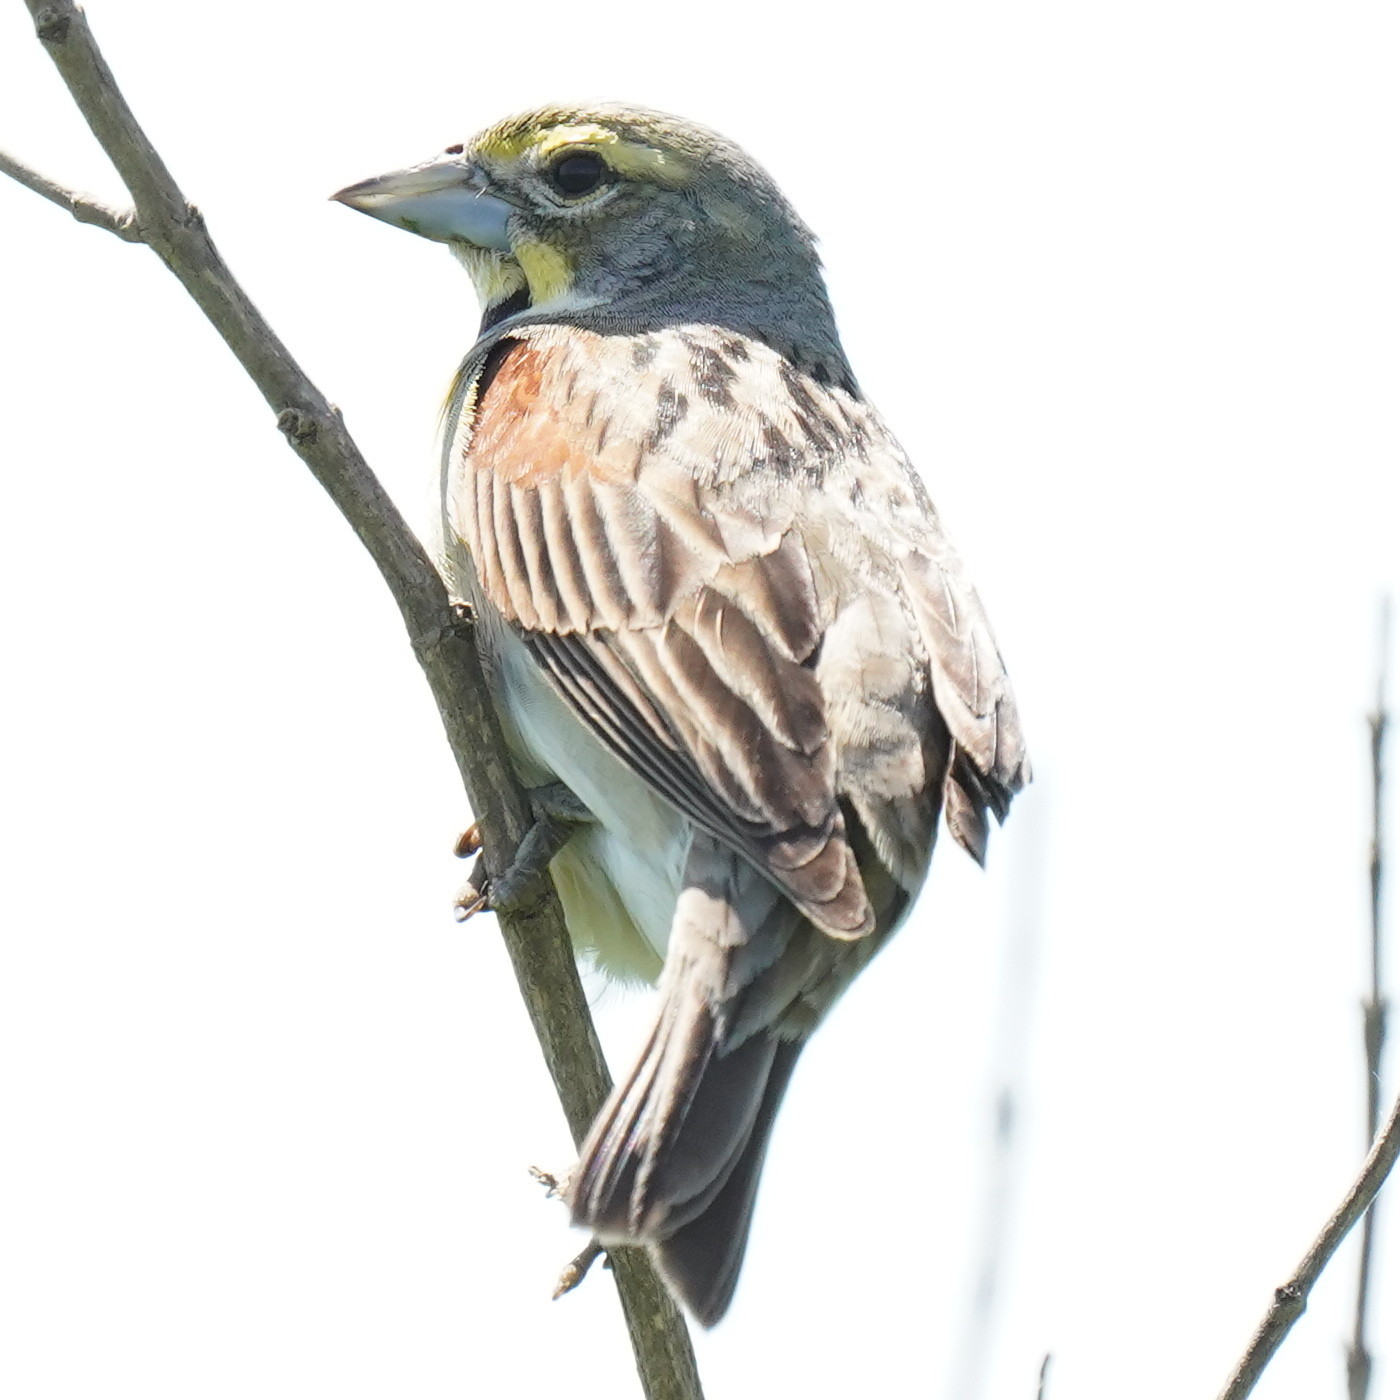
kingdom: Animalia
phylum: Chordata
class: Aves
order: Passeriformes
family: Cardinalidae
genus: Spiza
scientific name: Spiza americana
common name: Dickcissel
